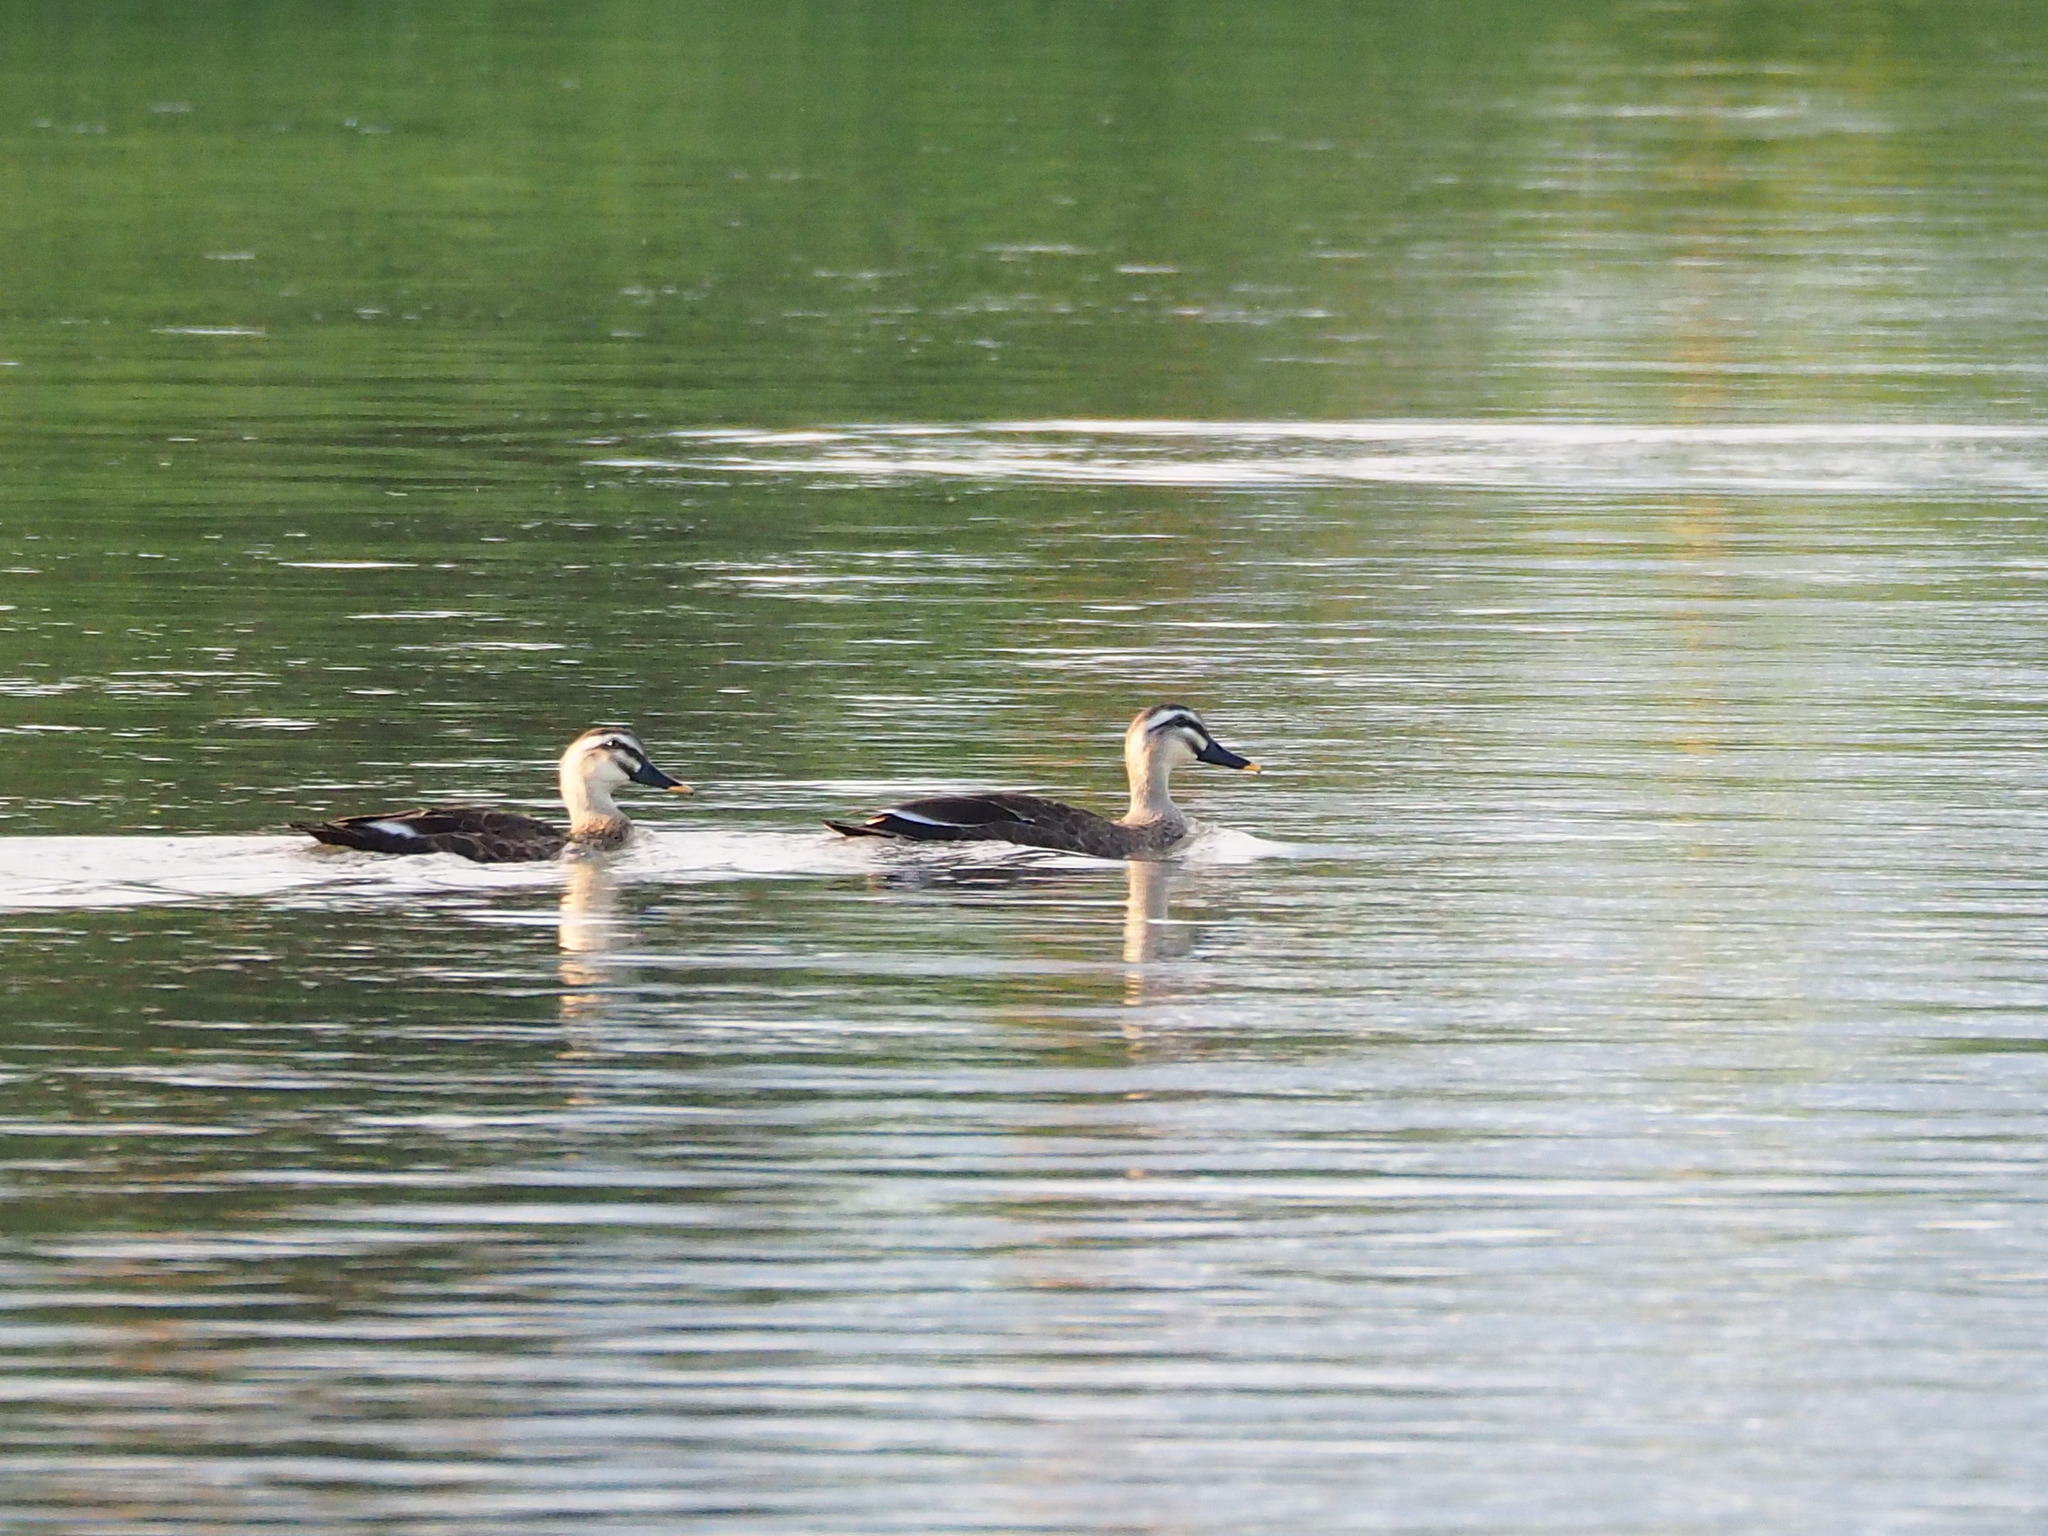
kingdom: Animalia
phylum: Chordata
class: Aves
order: Anseriformes
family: Anatidae
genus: Anas
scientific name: Anas zonorhyncha
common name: Eastern spot-billed duck
